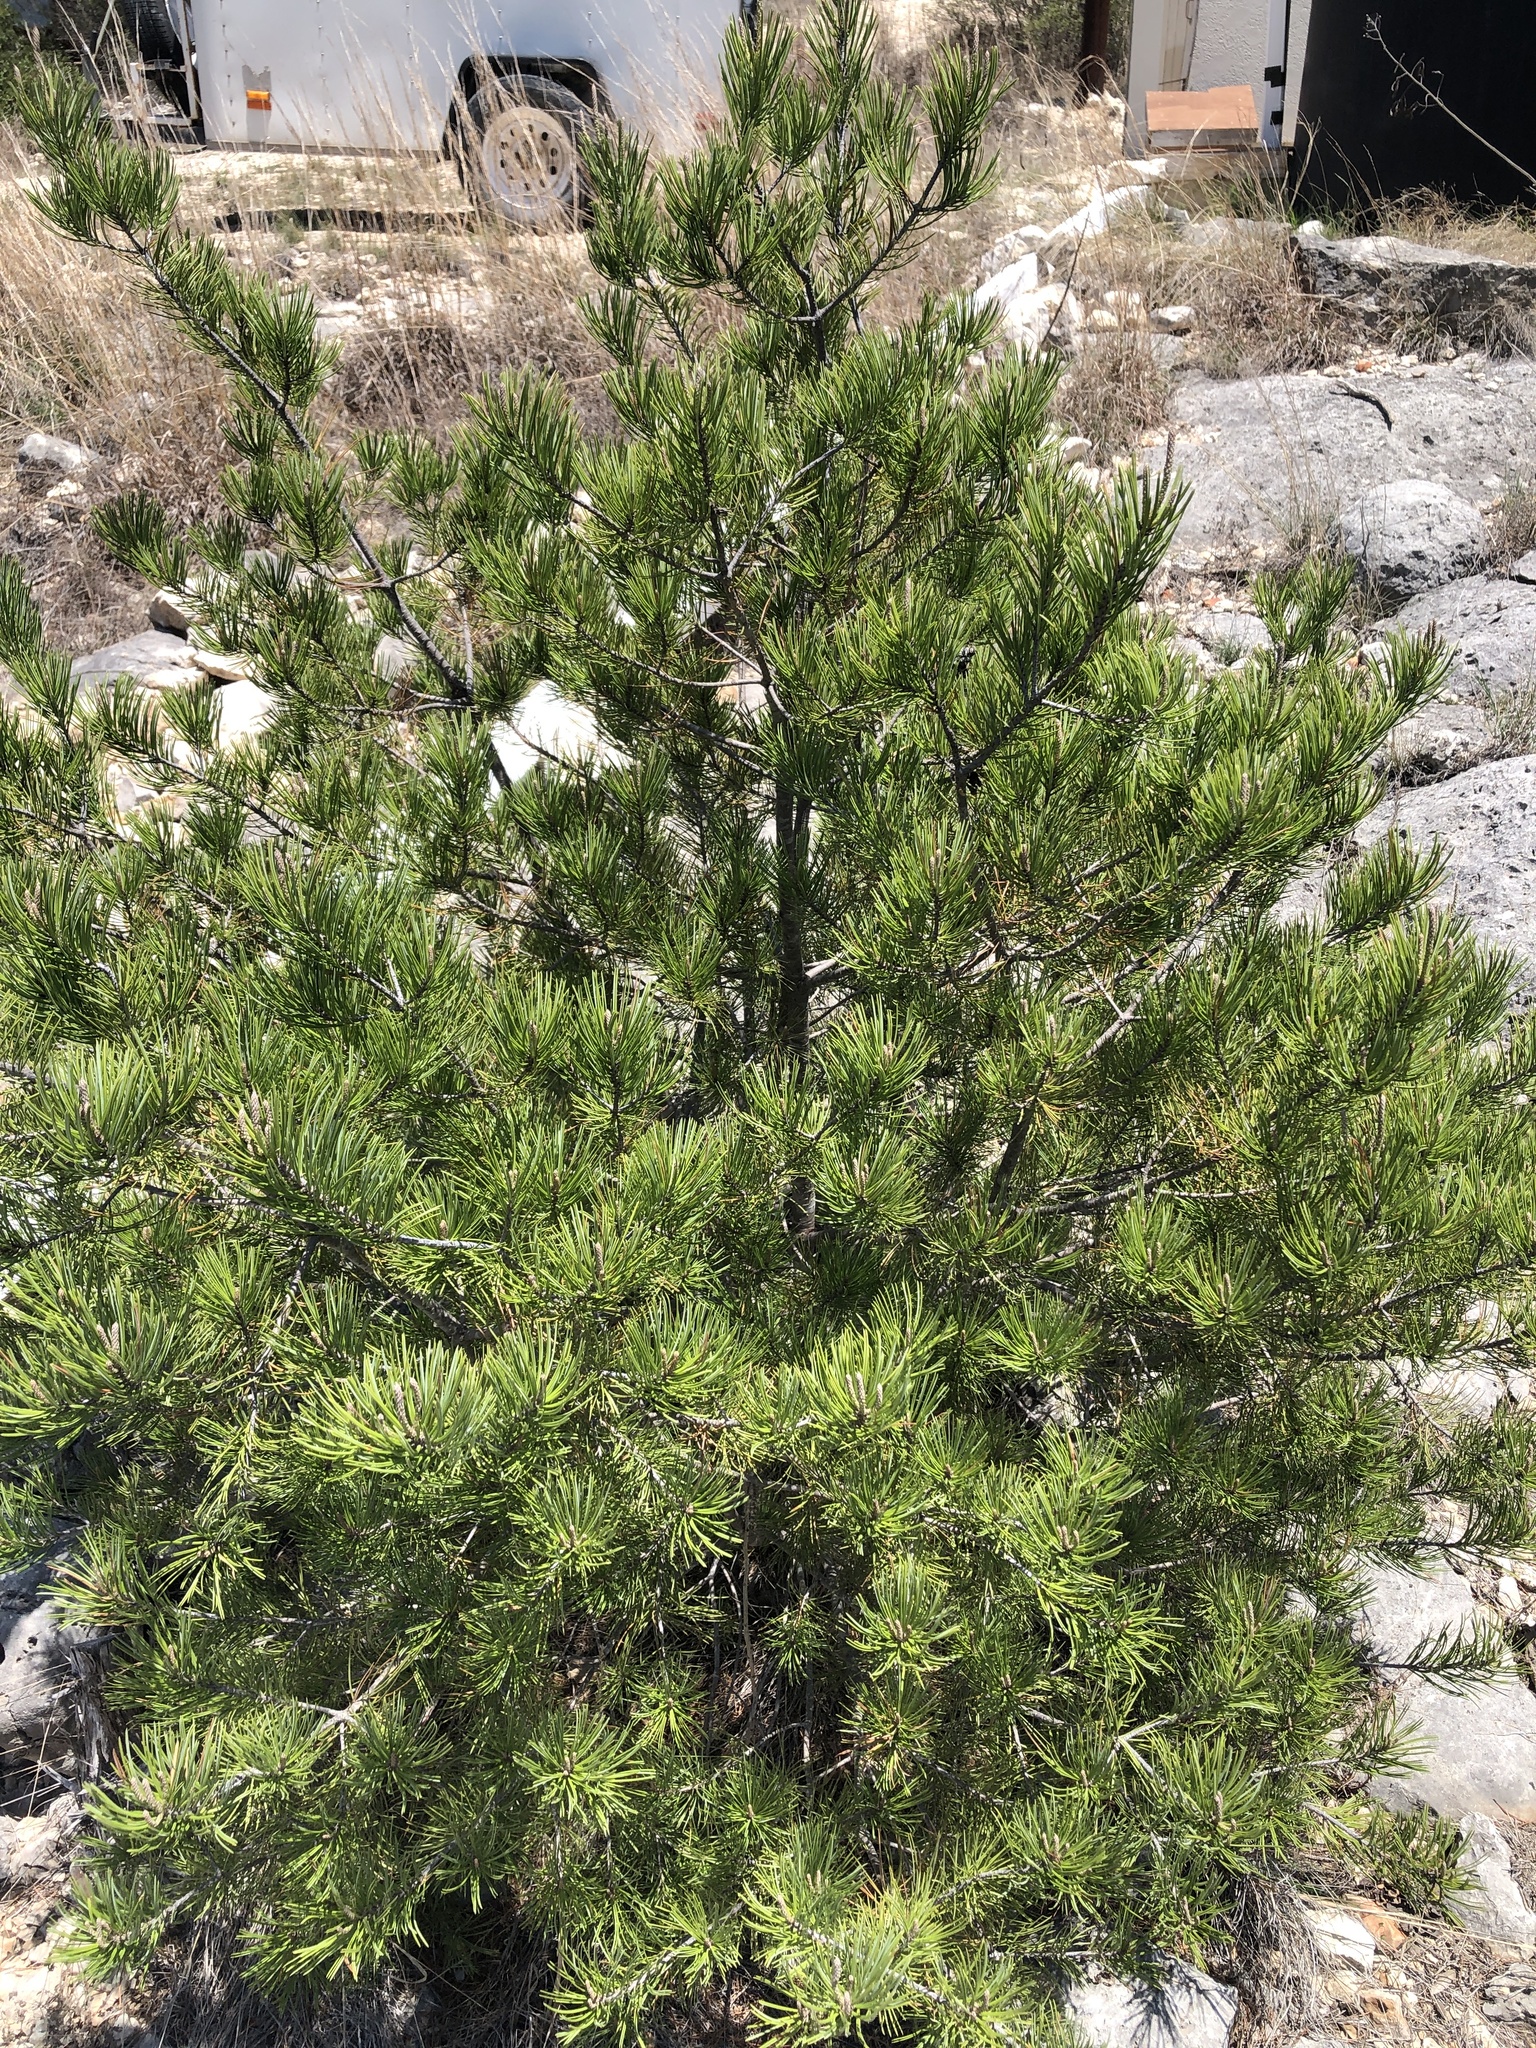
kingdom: Plantae
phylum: Tracheophyta
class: Pinopsida
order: Pinales
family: Pinaceae
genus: Pinus
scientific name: Pinus remota
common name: Nut pine
